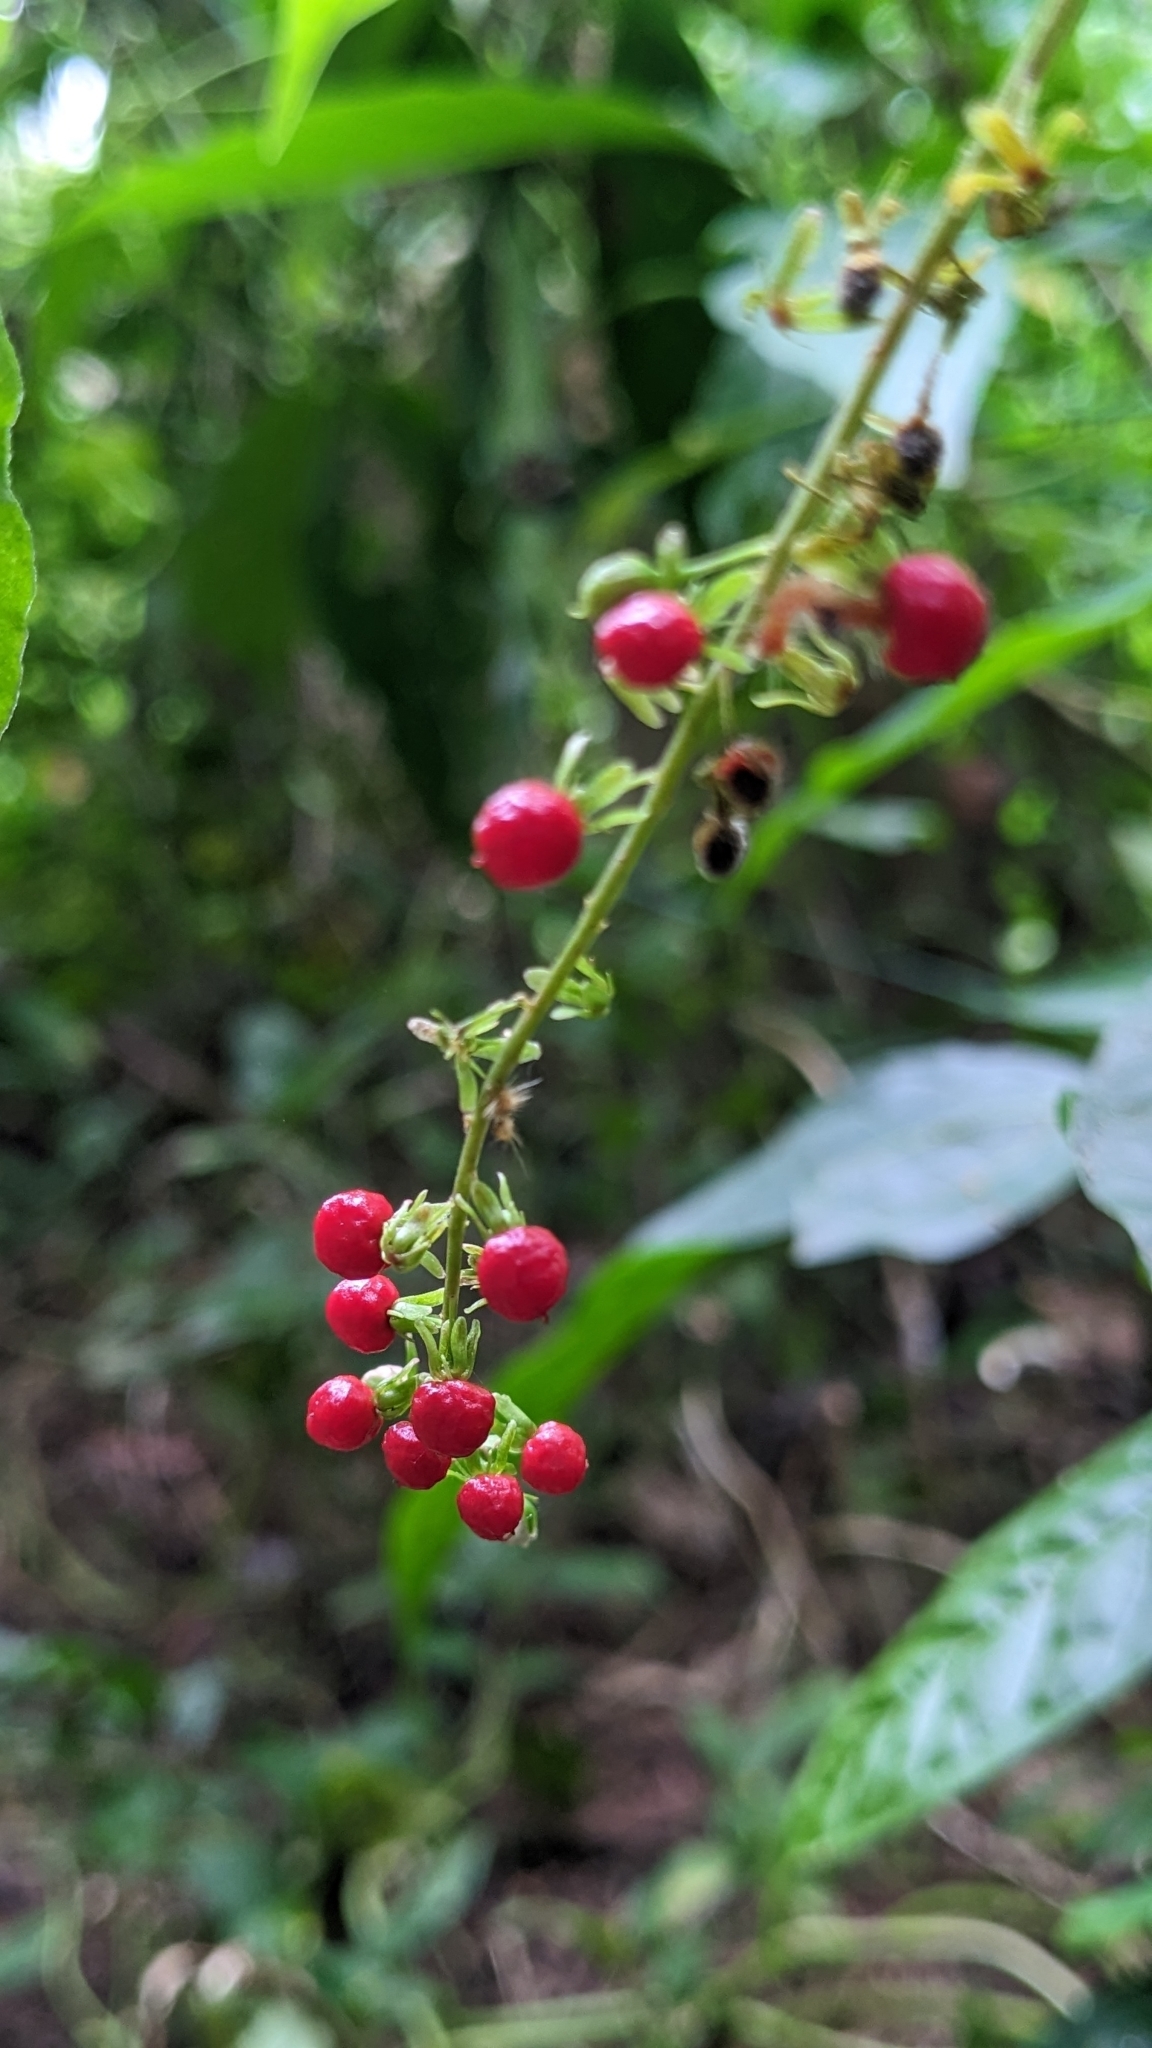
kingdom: Plantae
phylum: Tracheophyta
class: Magnoliopsida
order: Caryophyllales
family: Phytolaccaceae
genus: Rivina
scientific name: Rivina humilis
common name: Rougeplant
